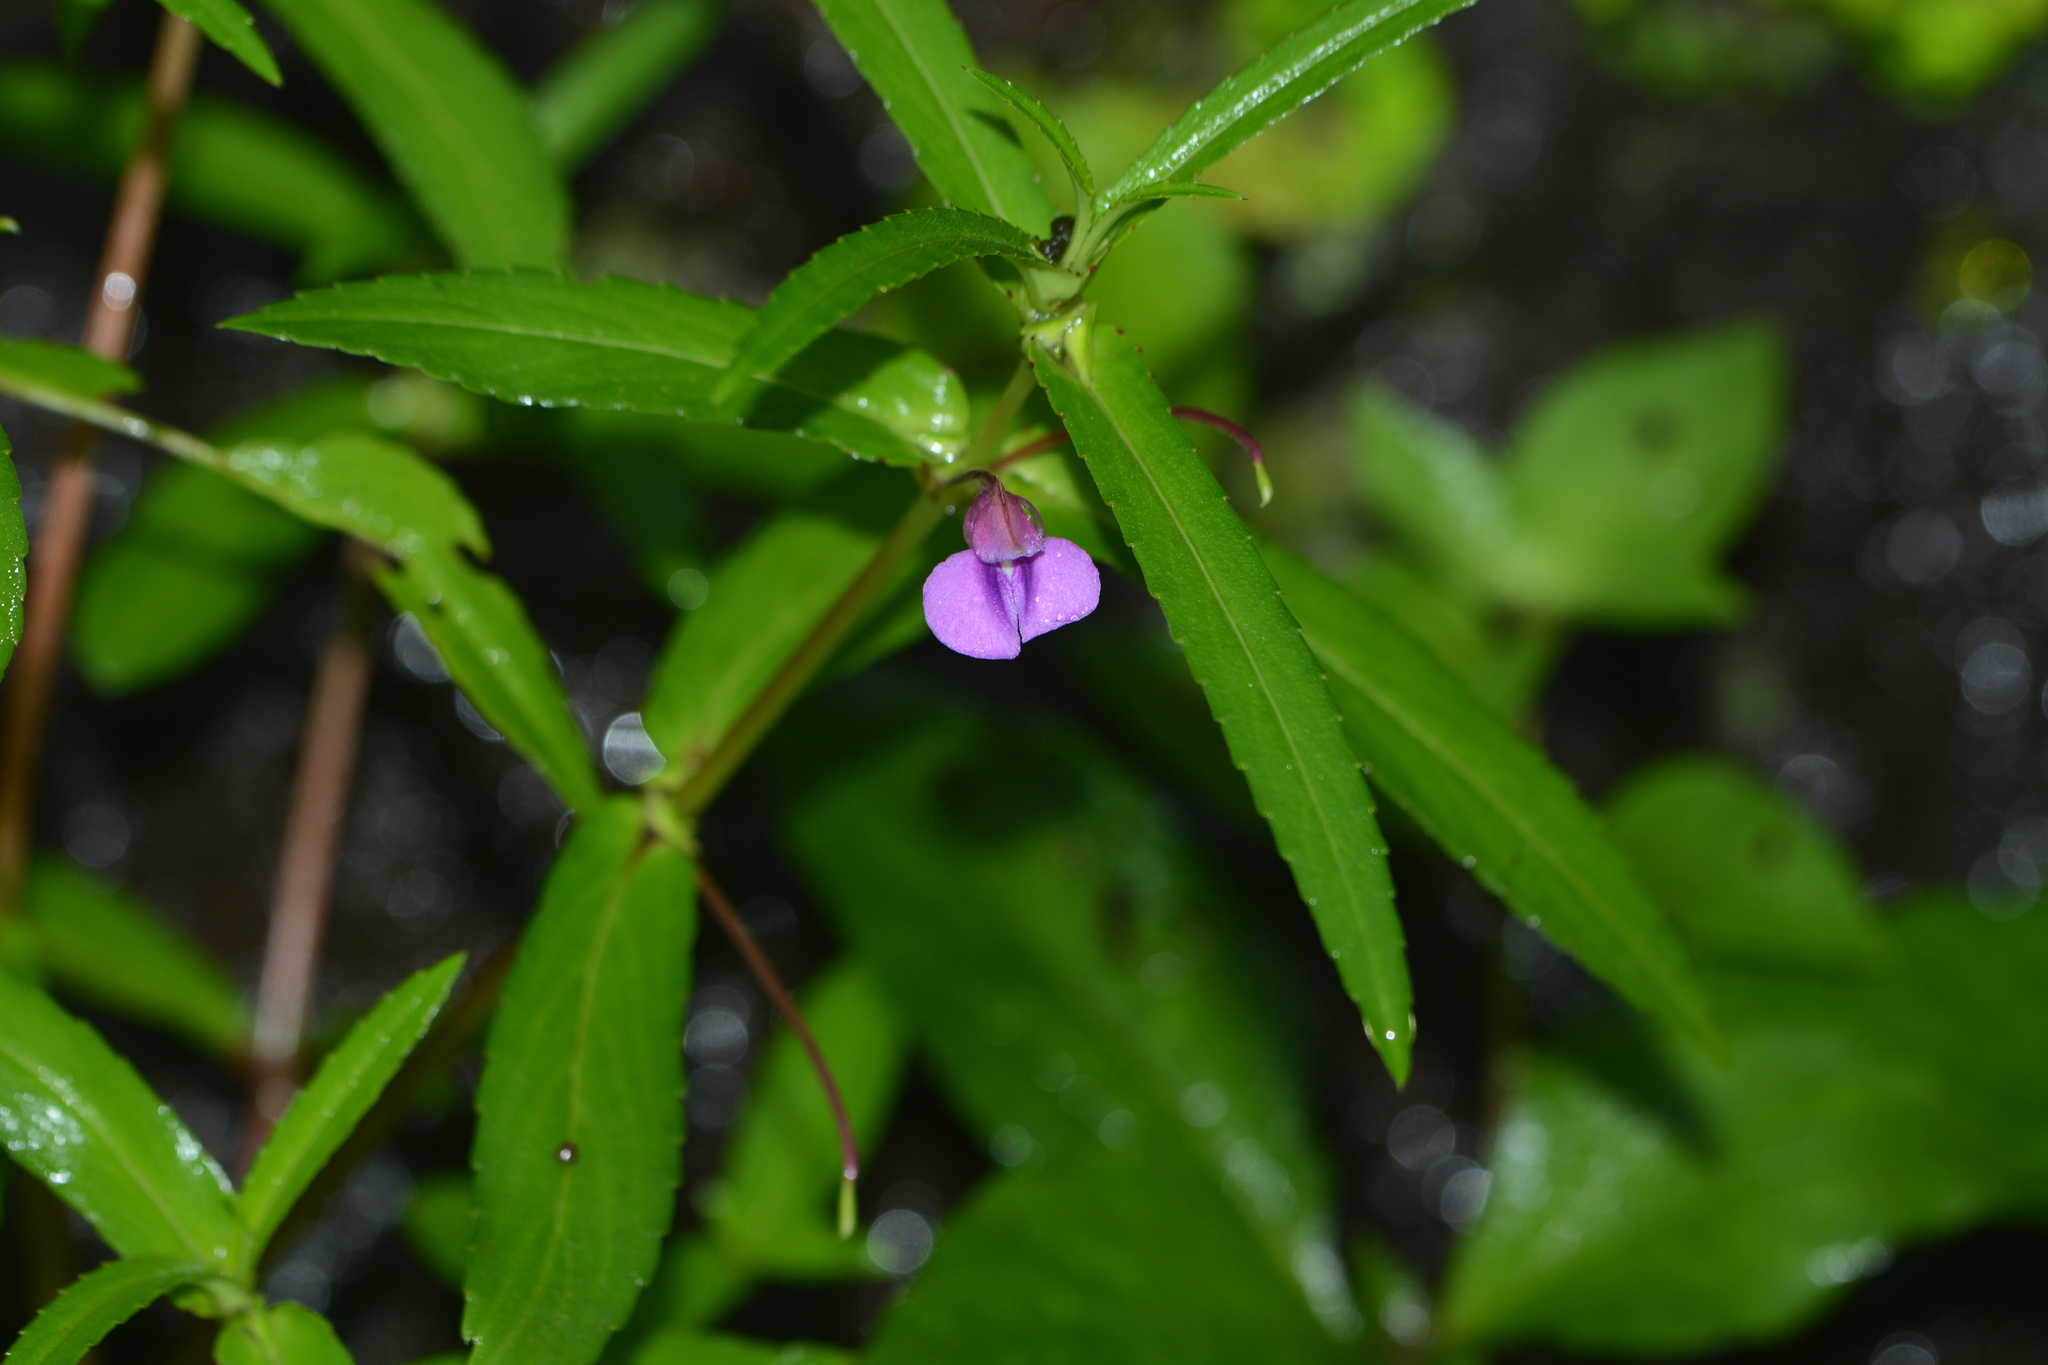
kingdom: Plantae
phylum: Tracheophyta
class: Magnoliopsida
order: Ericales
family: Balsaminaceae
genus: Impatiens
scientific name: Impatiens tomentosa
